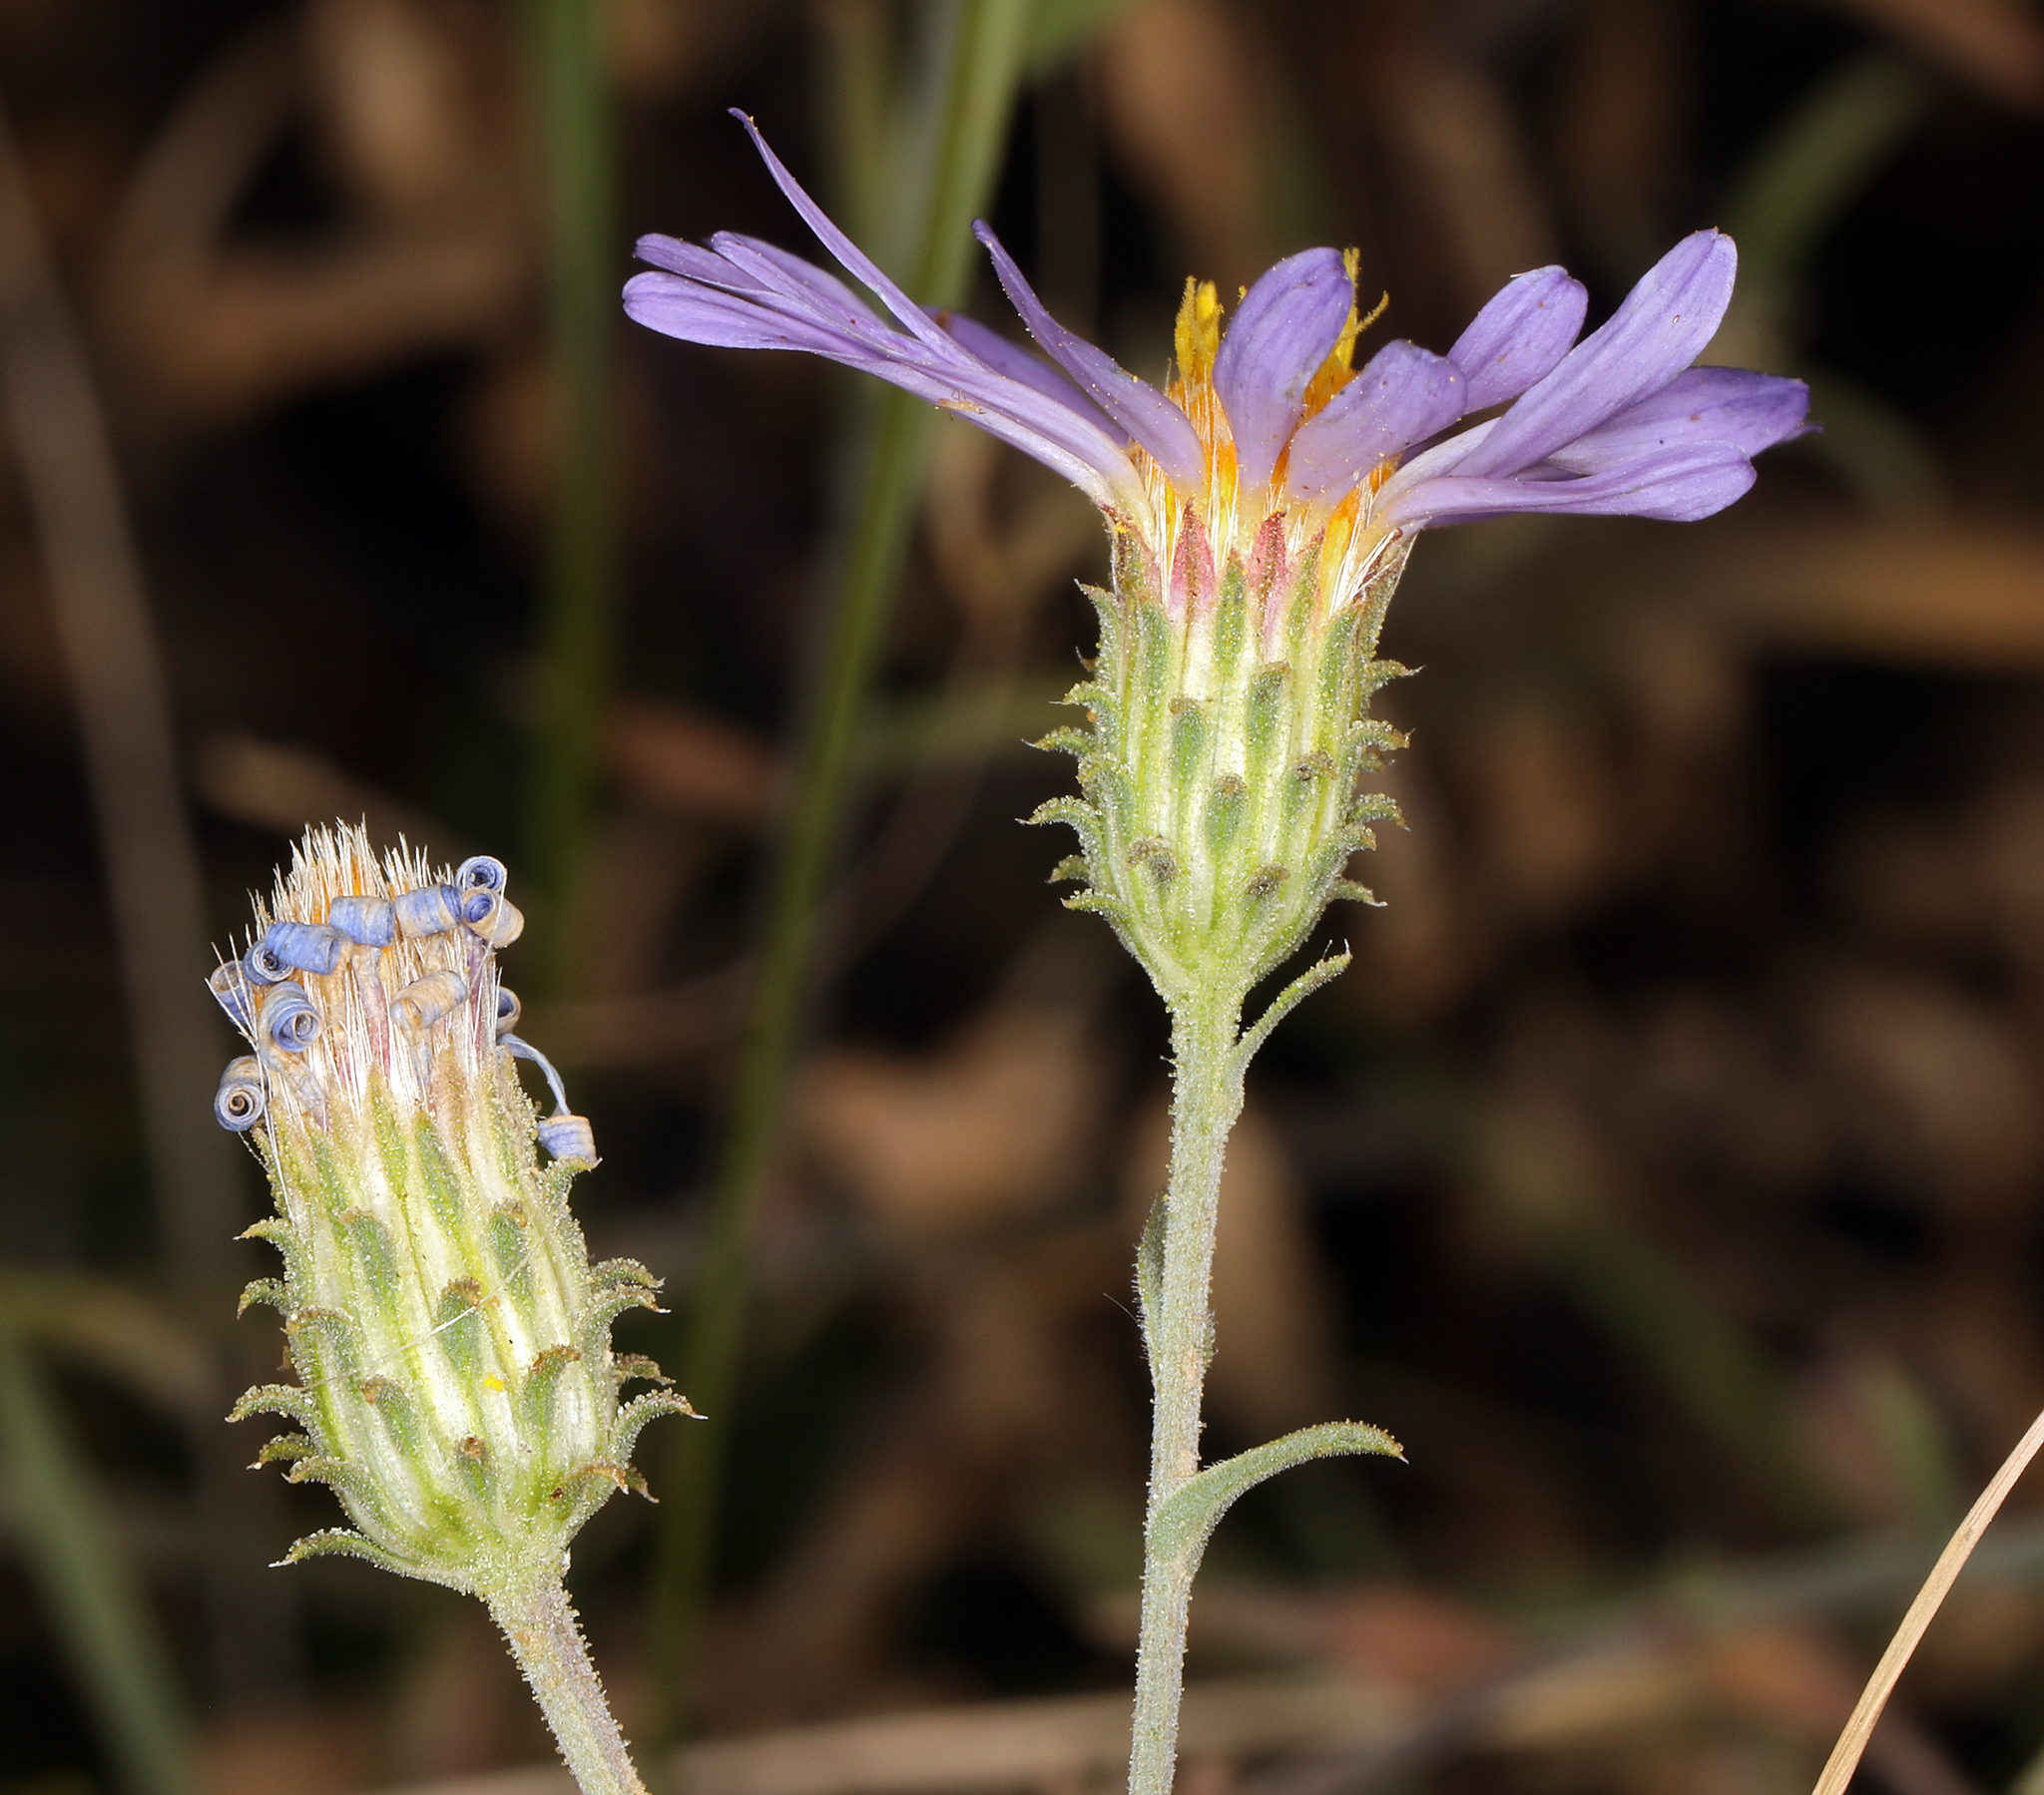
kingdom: Plantae
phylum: Tracheophyta
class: Magnoliopsida
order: Asterales
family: Asteraceae
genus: Dieteria
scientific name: Dieteria canescens
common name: Hoary-aster
